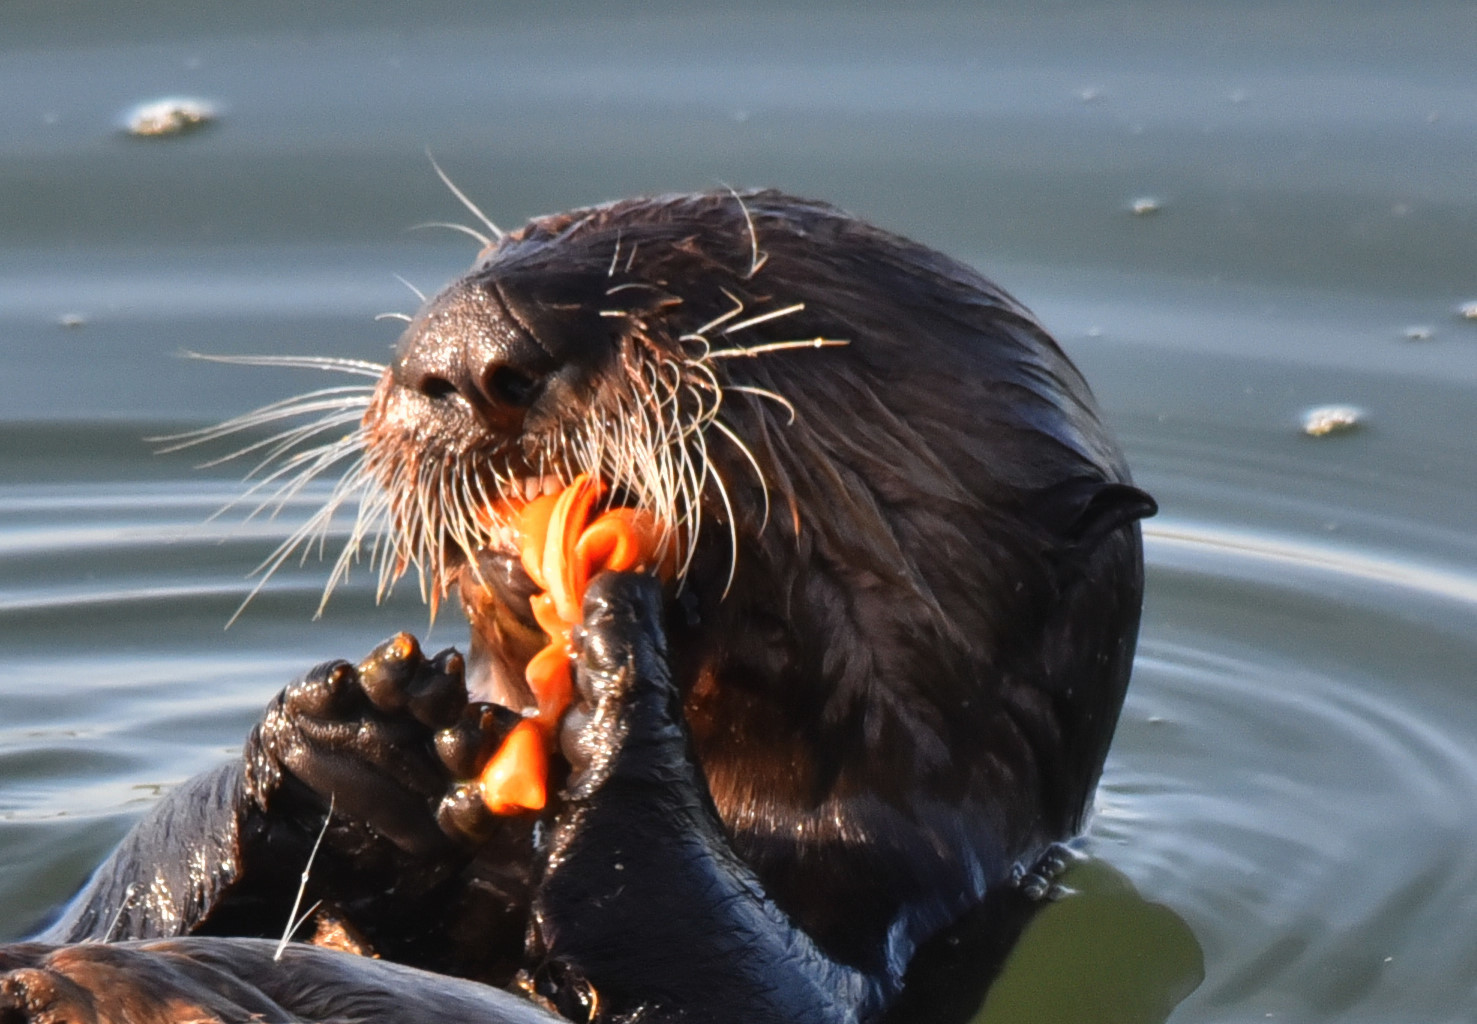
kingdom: Animalia
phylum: Chordata
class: Mammalia
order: Carnivora
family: Mustelidae
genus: Enhydra
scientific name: Enhydra lutris
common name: Sea otter
